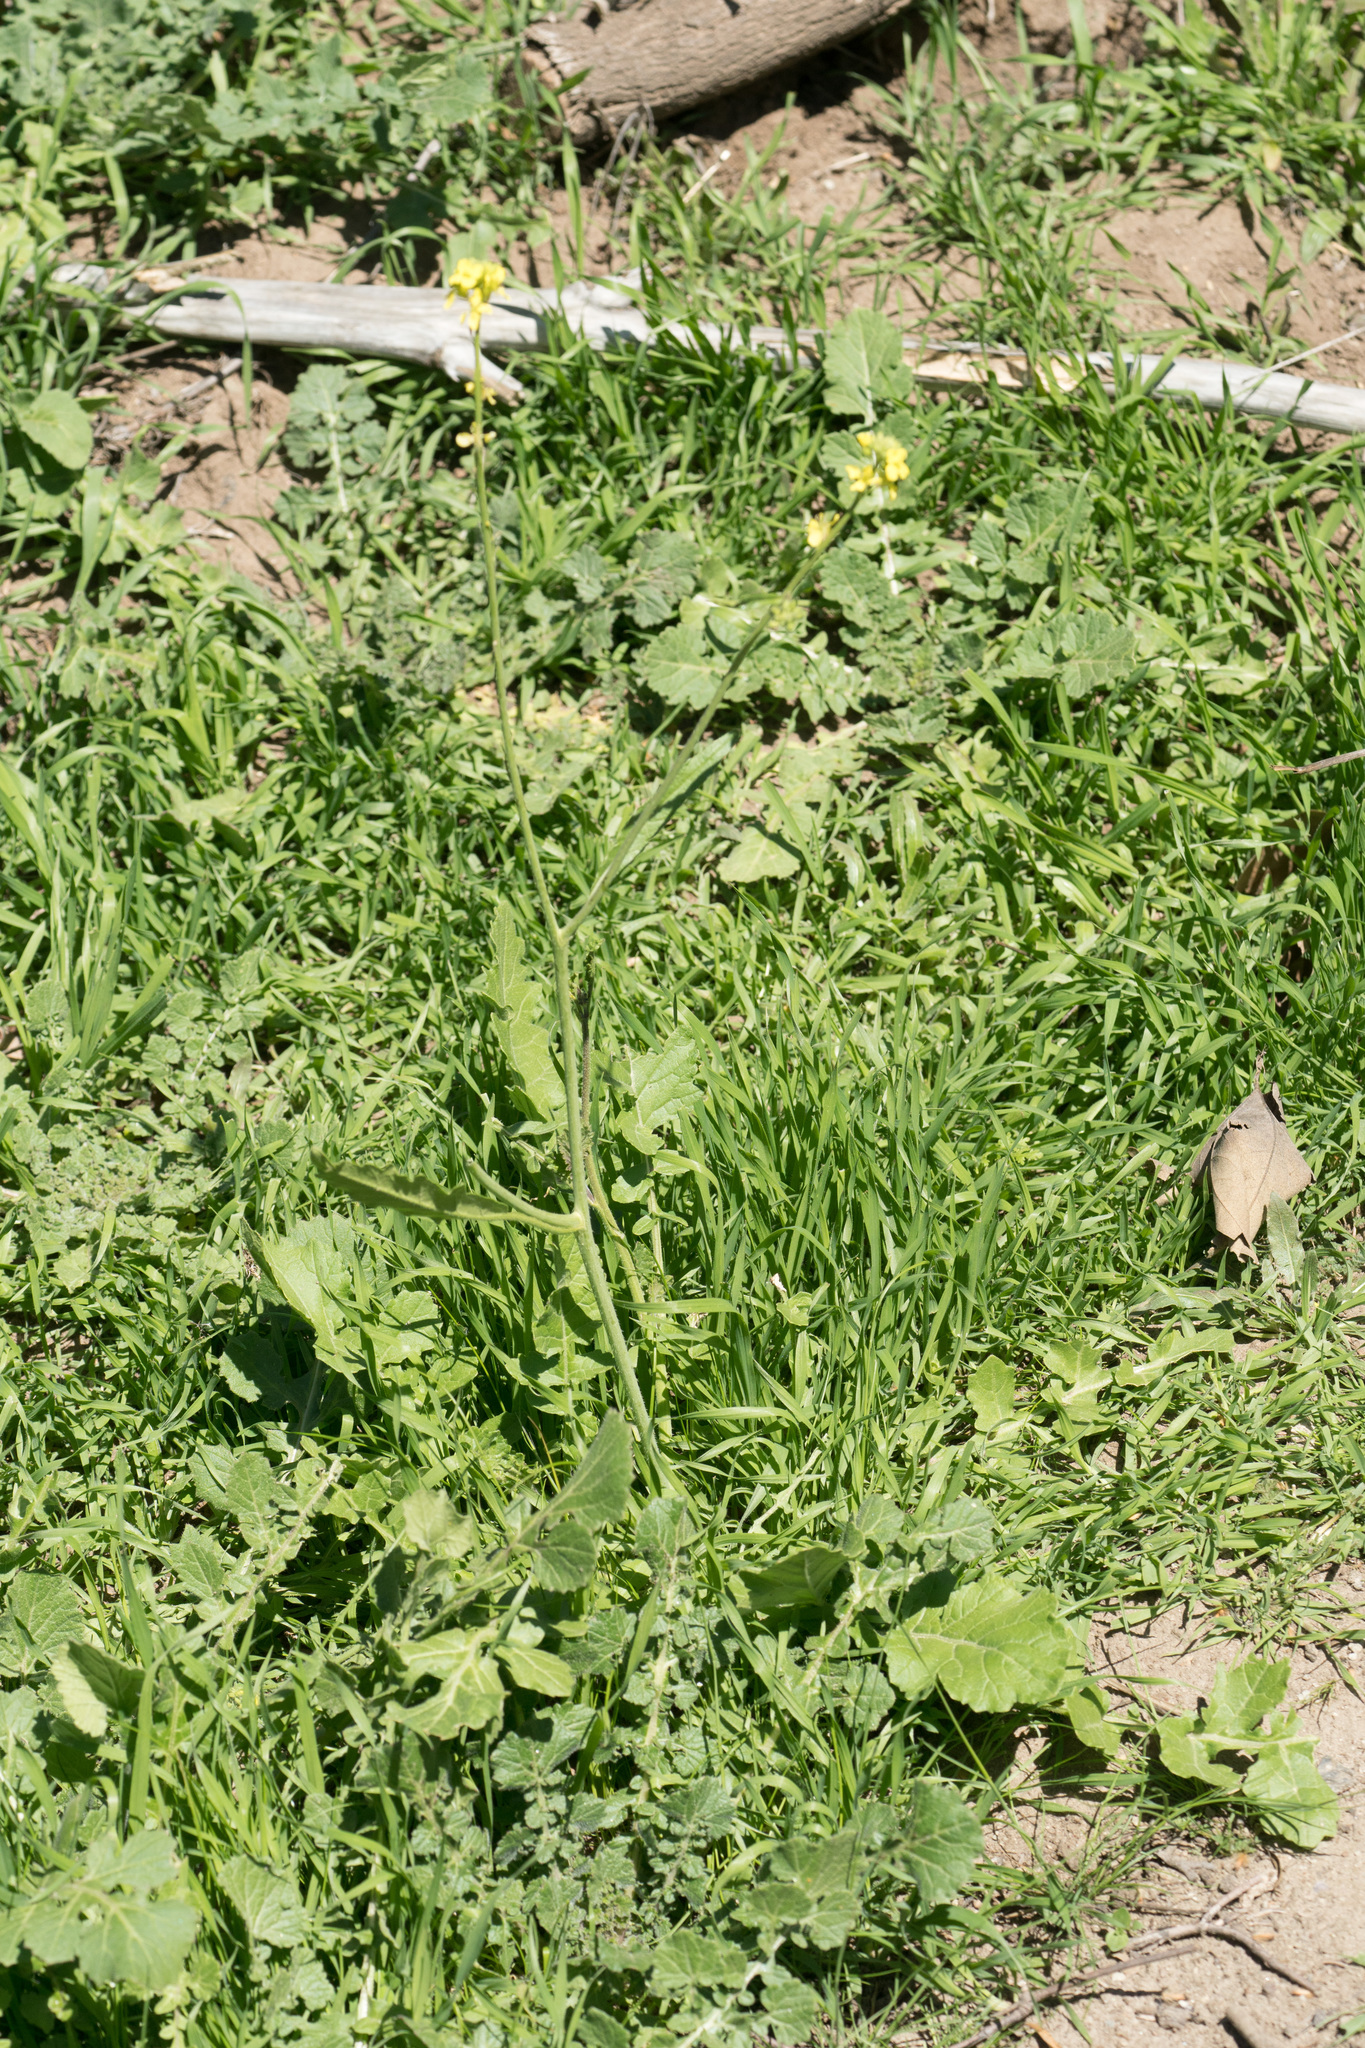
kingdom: Plantae
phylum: Tracheophyta
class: Magnoliopsida
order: Brassicales
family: Brassicaceae
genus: Hirschfeldia
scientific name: Hirschfeldia incana
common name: Hoary mustard
